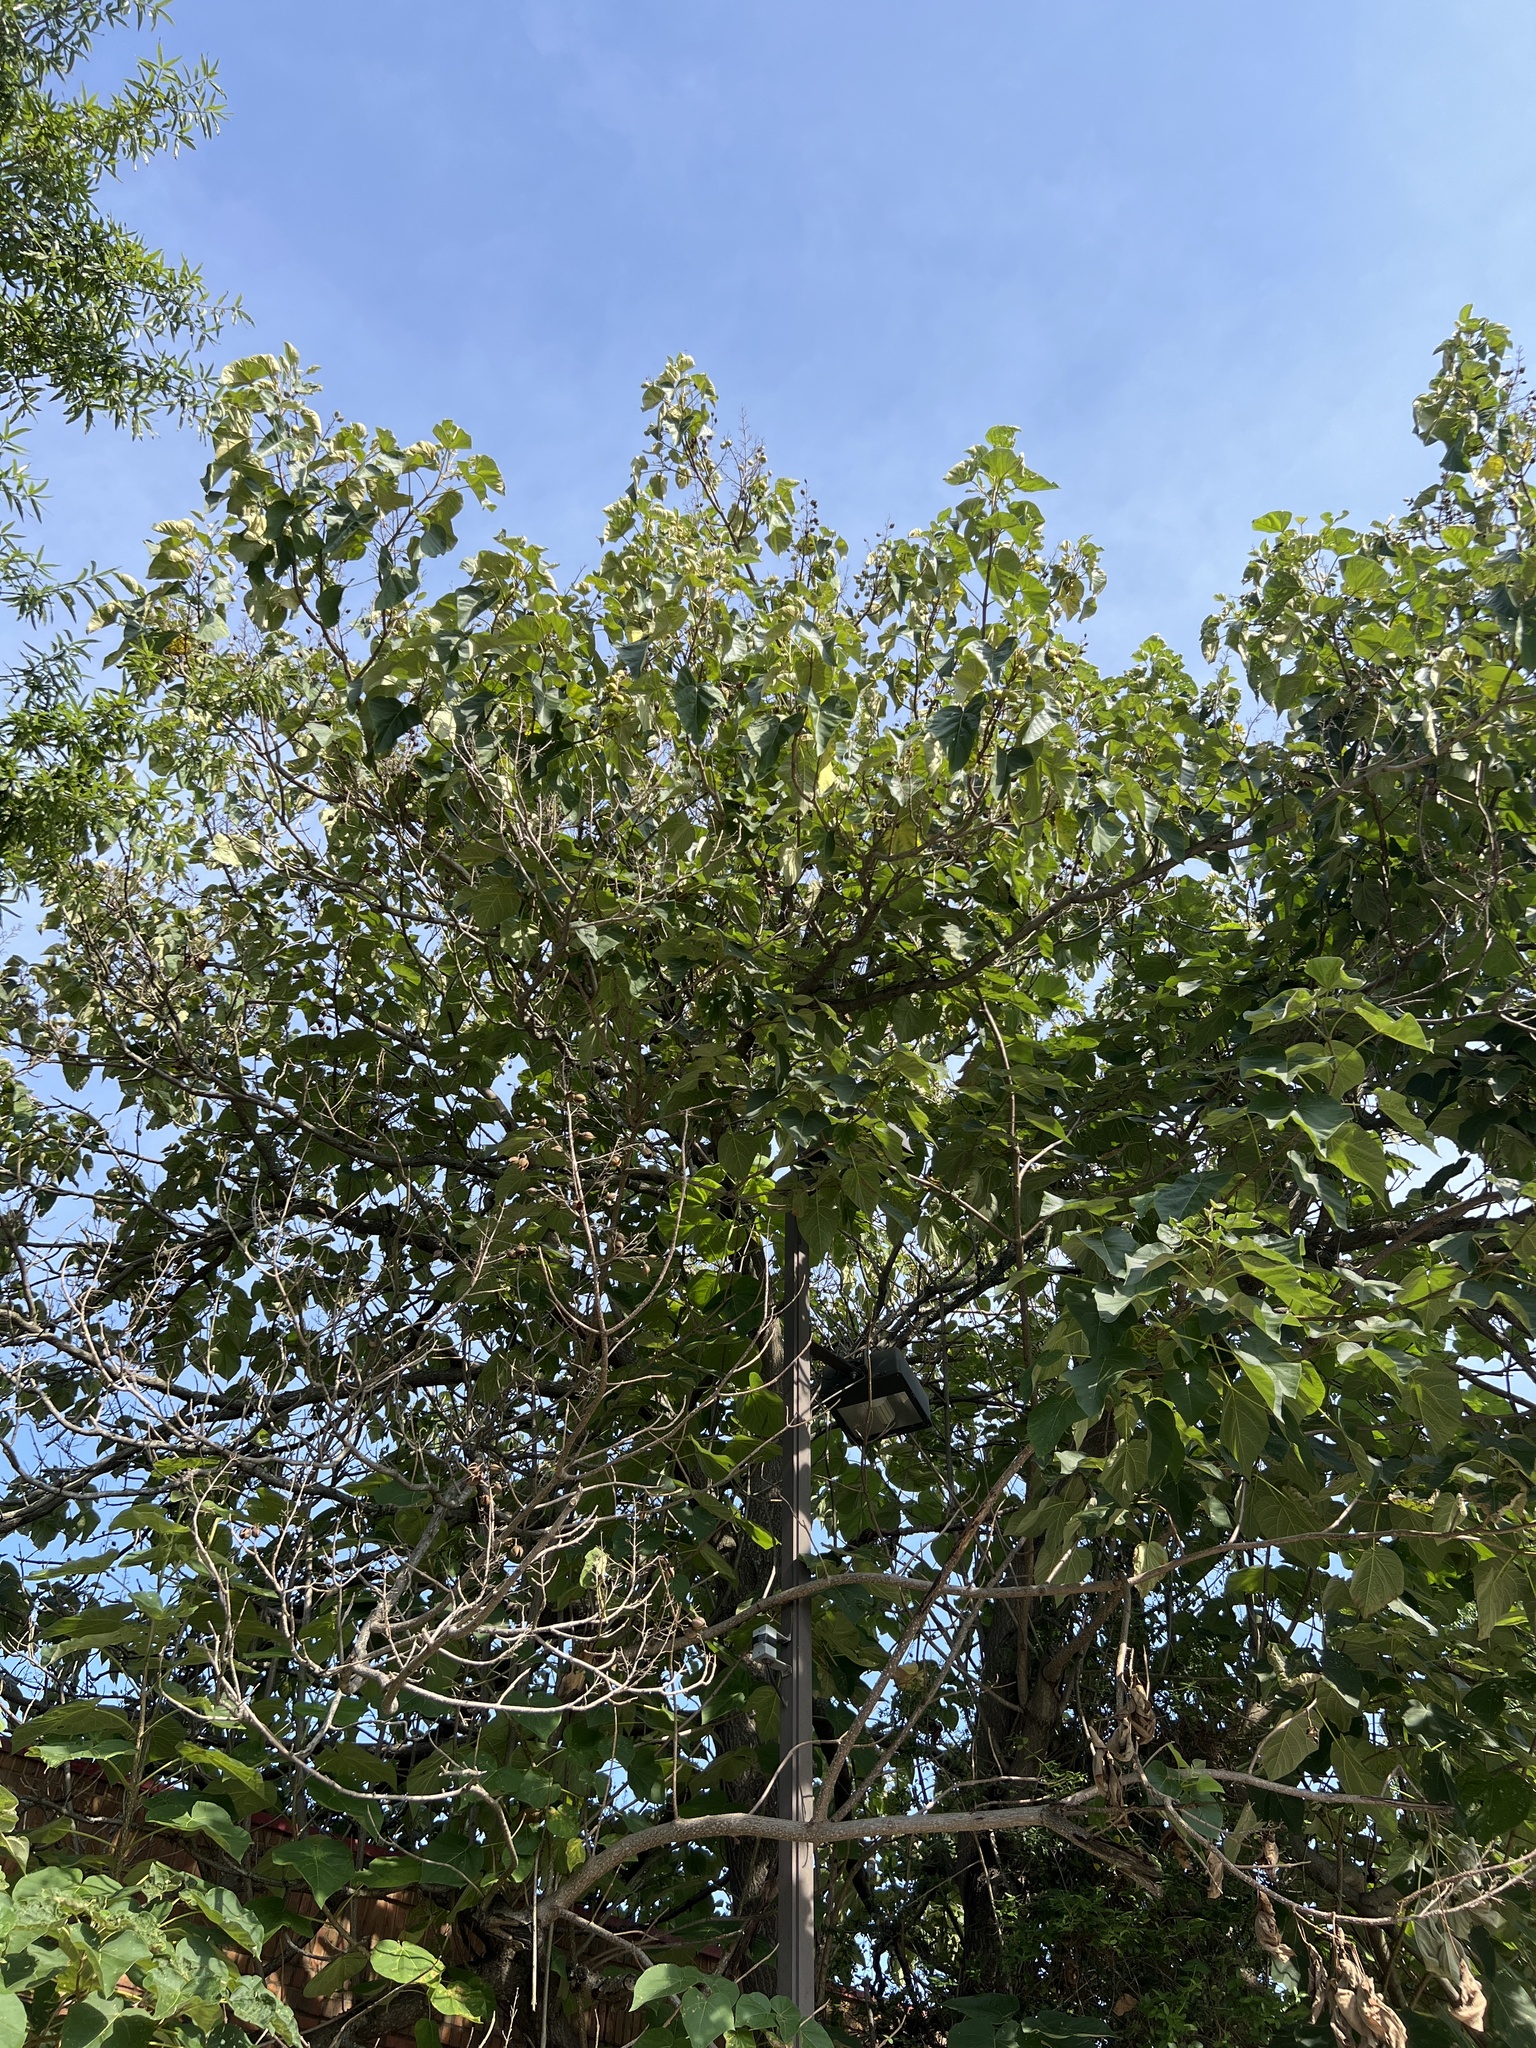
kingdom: Plantae
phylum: Tracheophyta
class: Magnoliopsida
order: Lamiales
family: Paulowniaceae
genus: Paulownia
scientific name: Paulownia tomentosa
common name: Foxglove-tree
